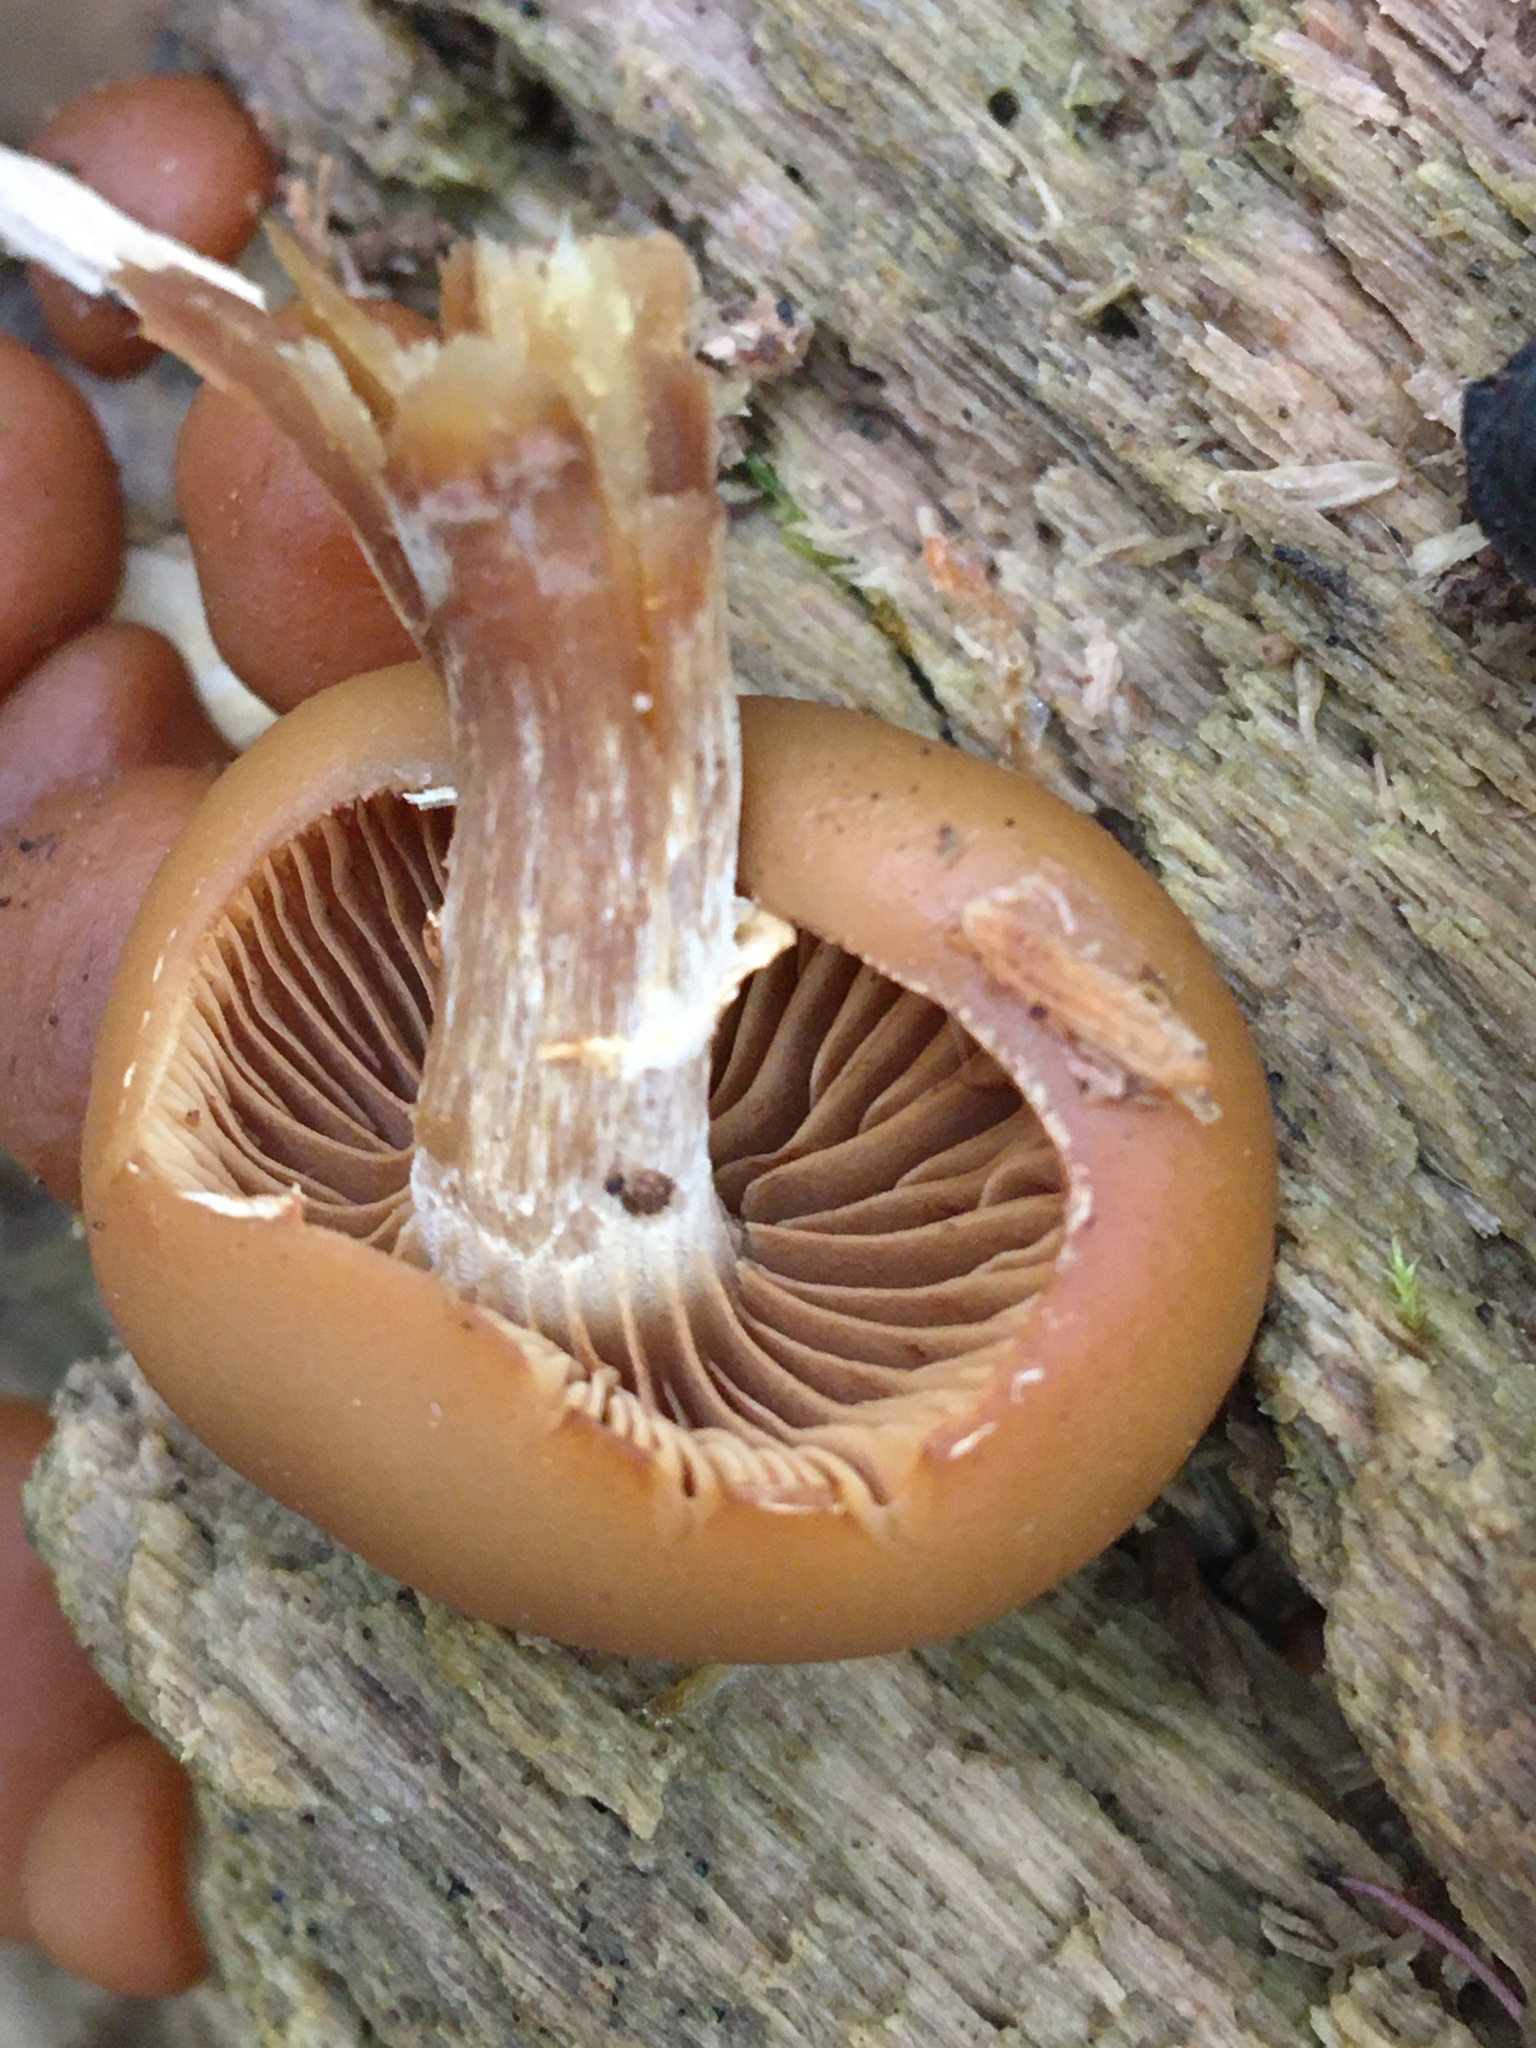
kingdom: Fungi
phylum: Basidiomycota
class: Agaricomycetes
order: Agaricales
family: Hymenogastraceae
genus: Galerina
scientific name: Galerina marginata
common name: Funeral bell
